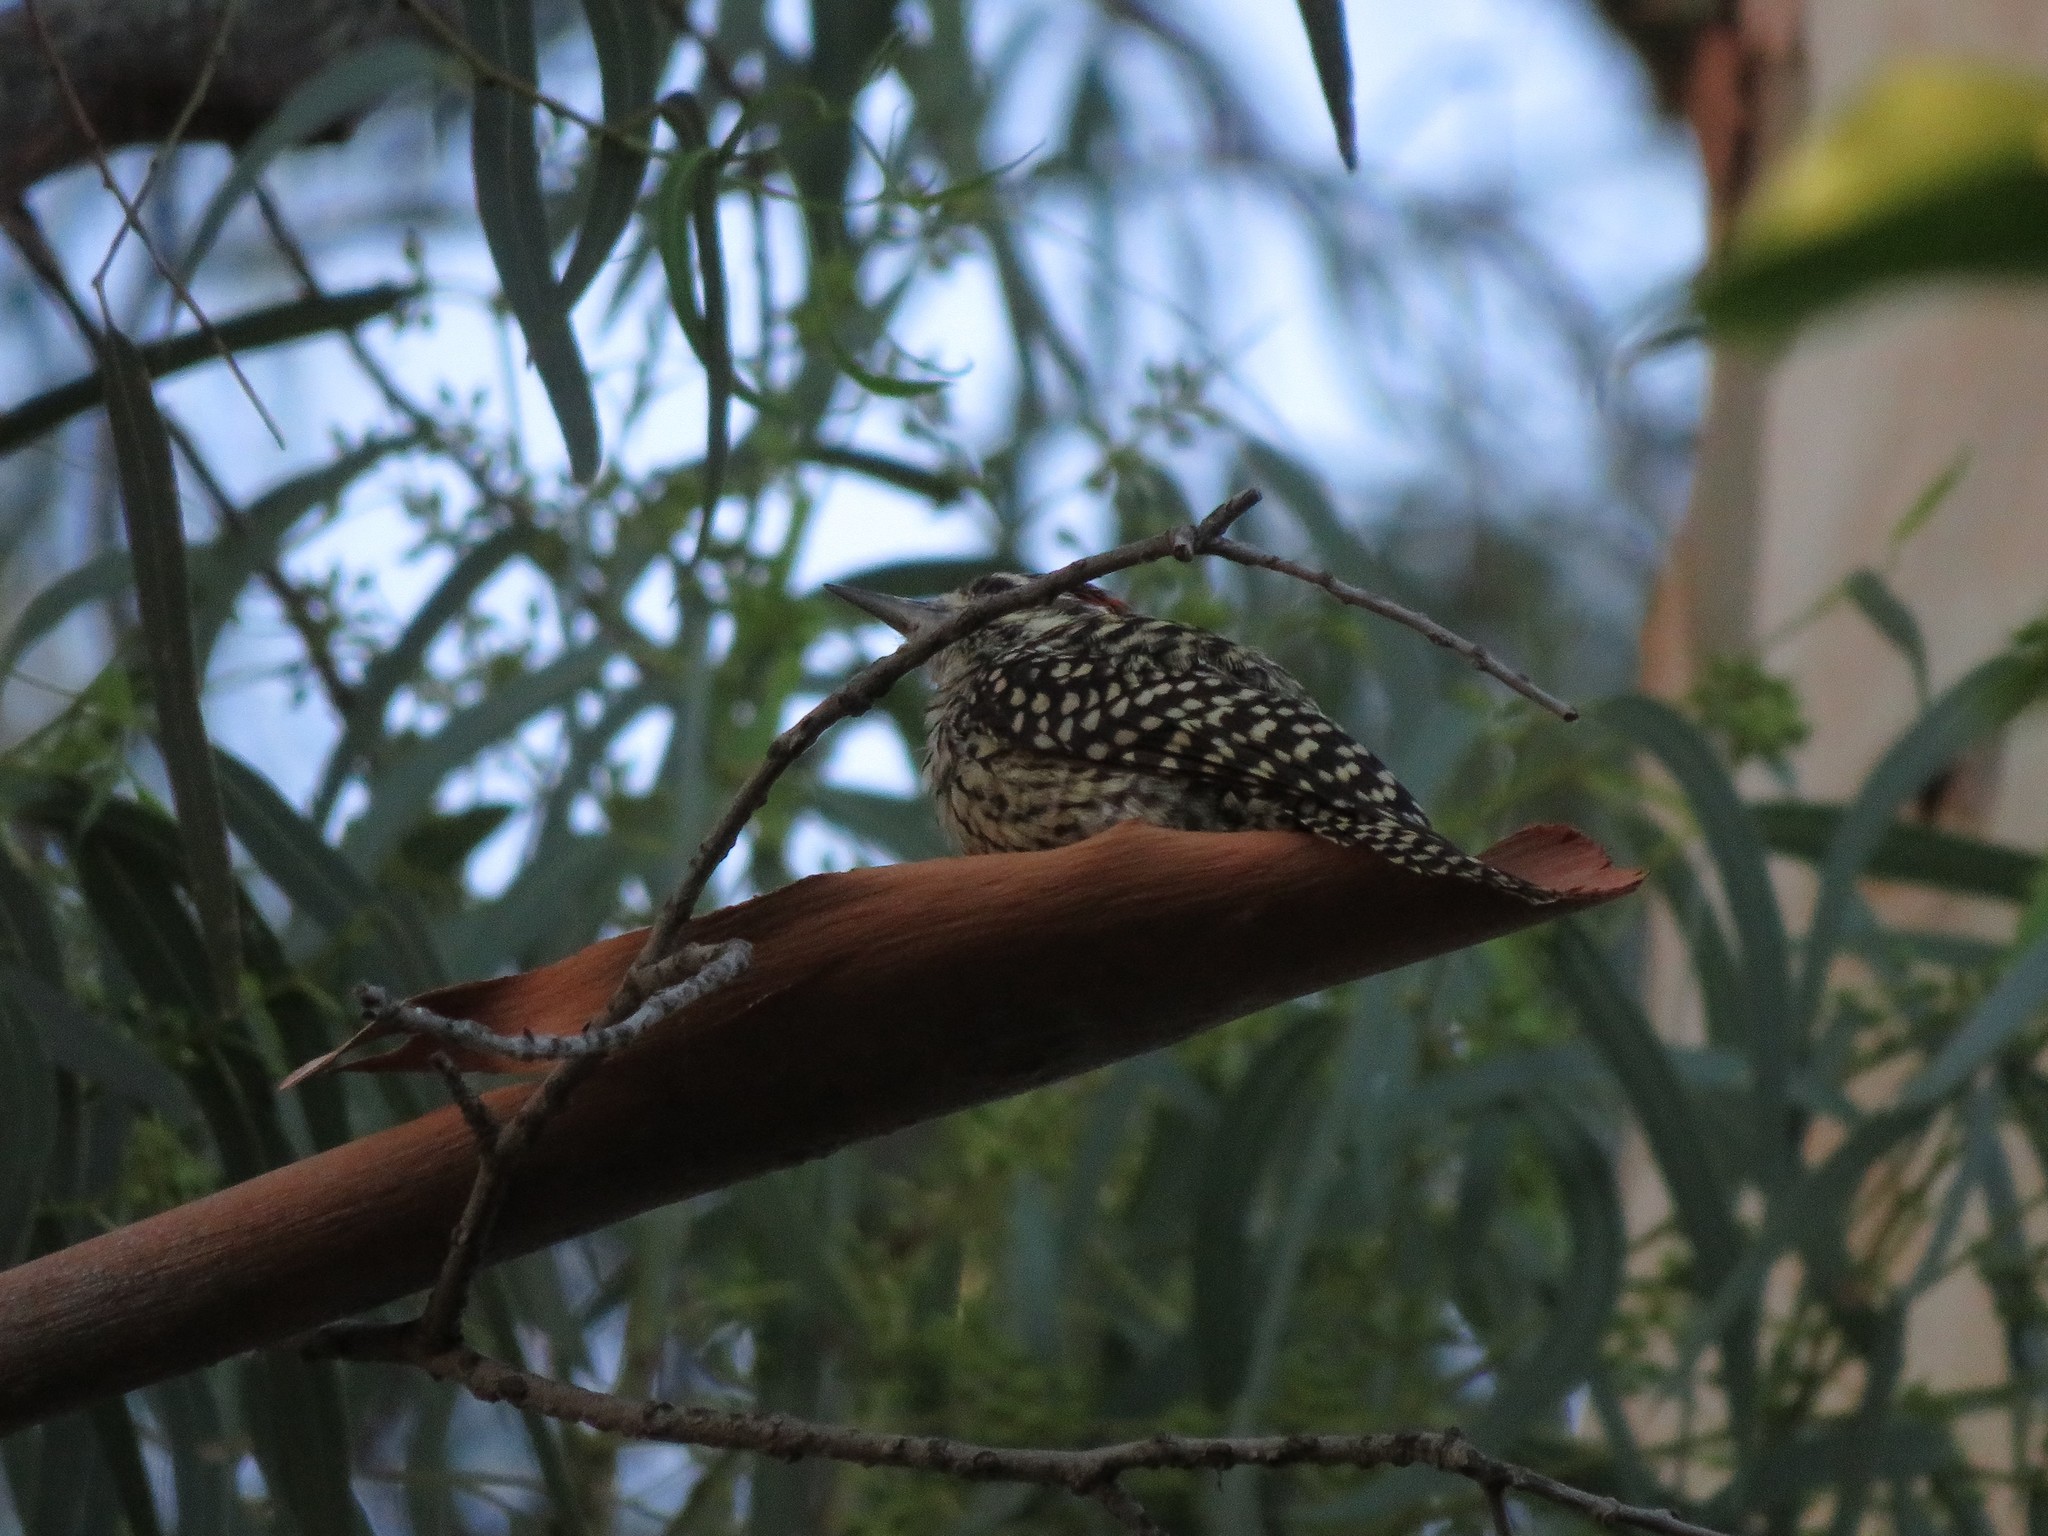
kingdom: Animalia
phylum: Chordata
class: Aves
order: Piciformes
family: Picidae
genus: Veniliornis
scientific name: Veniliornis mixtus
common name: Checkered woodpecker
